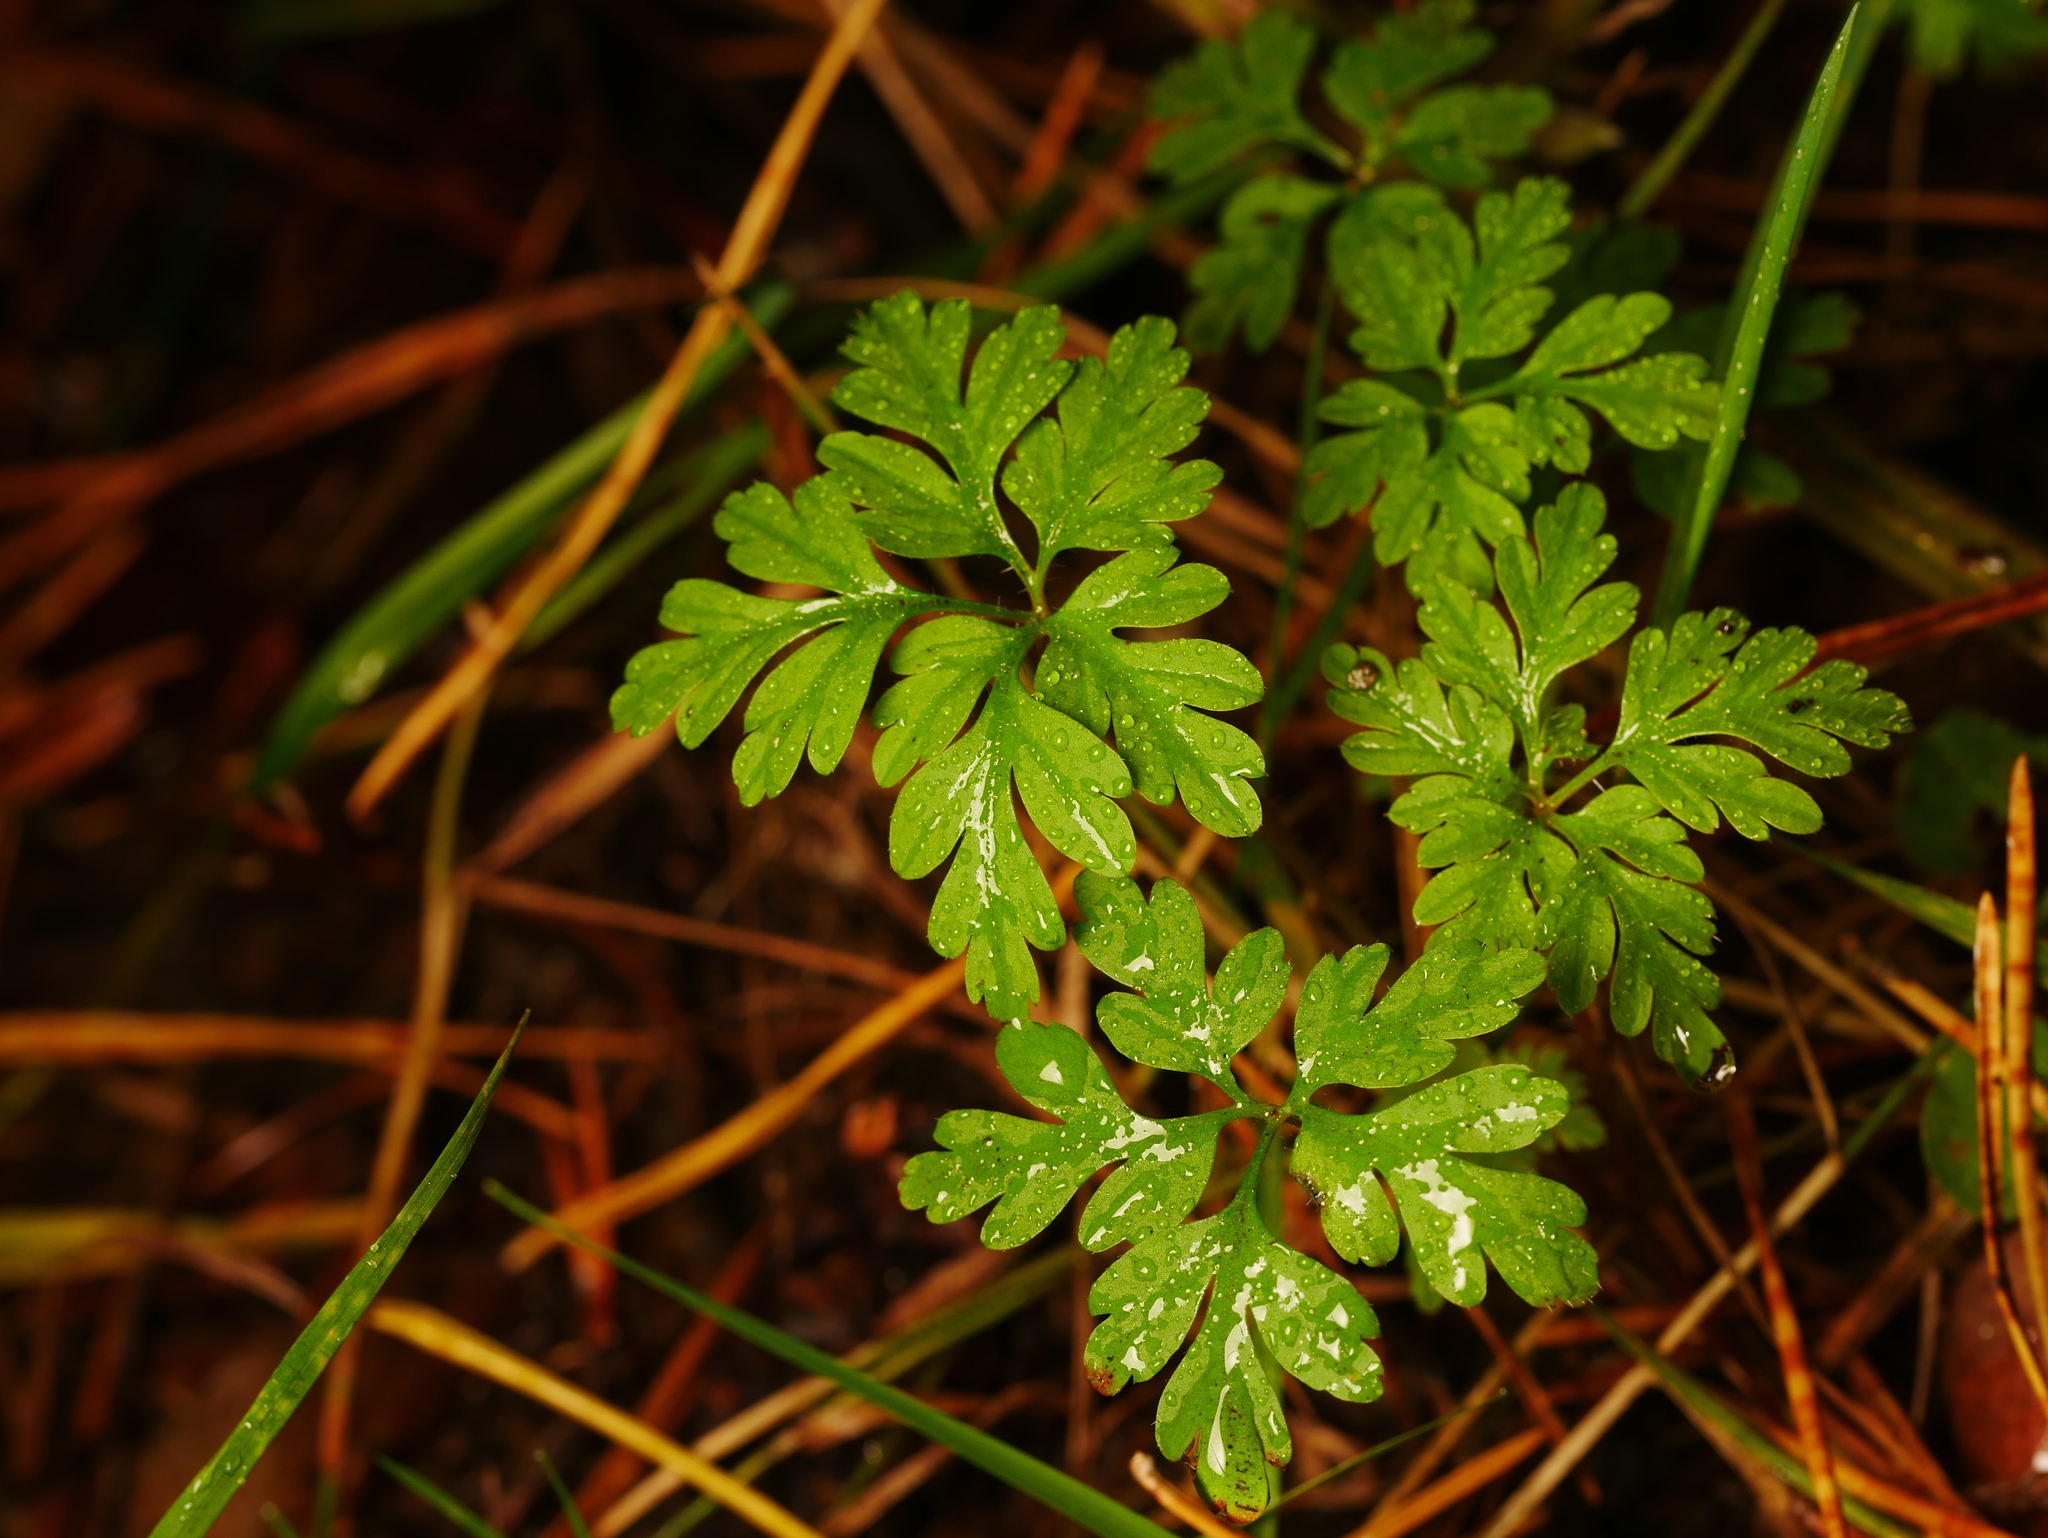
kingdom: Plantae
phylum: Tracheophyta
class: Magnoliopsida
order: Geraniales
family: Geraniaceae
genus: Geranium
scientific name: Geranium robertianum
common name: Herb-robert
